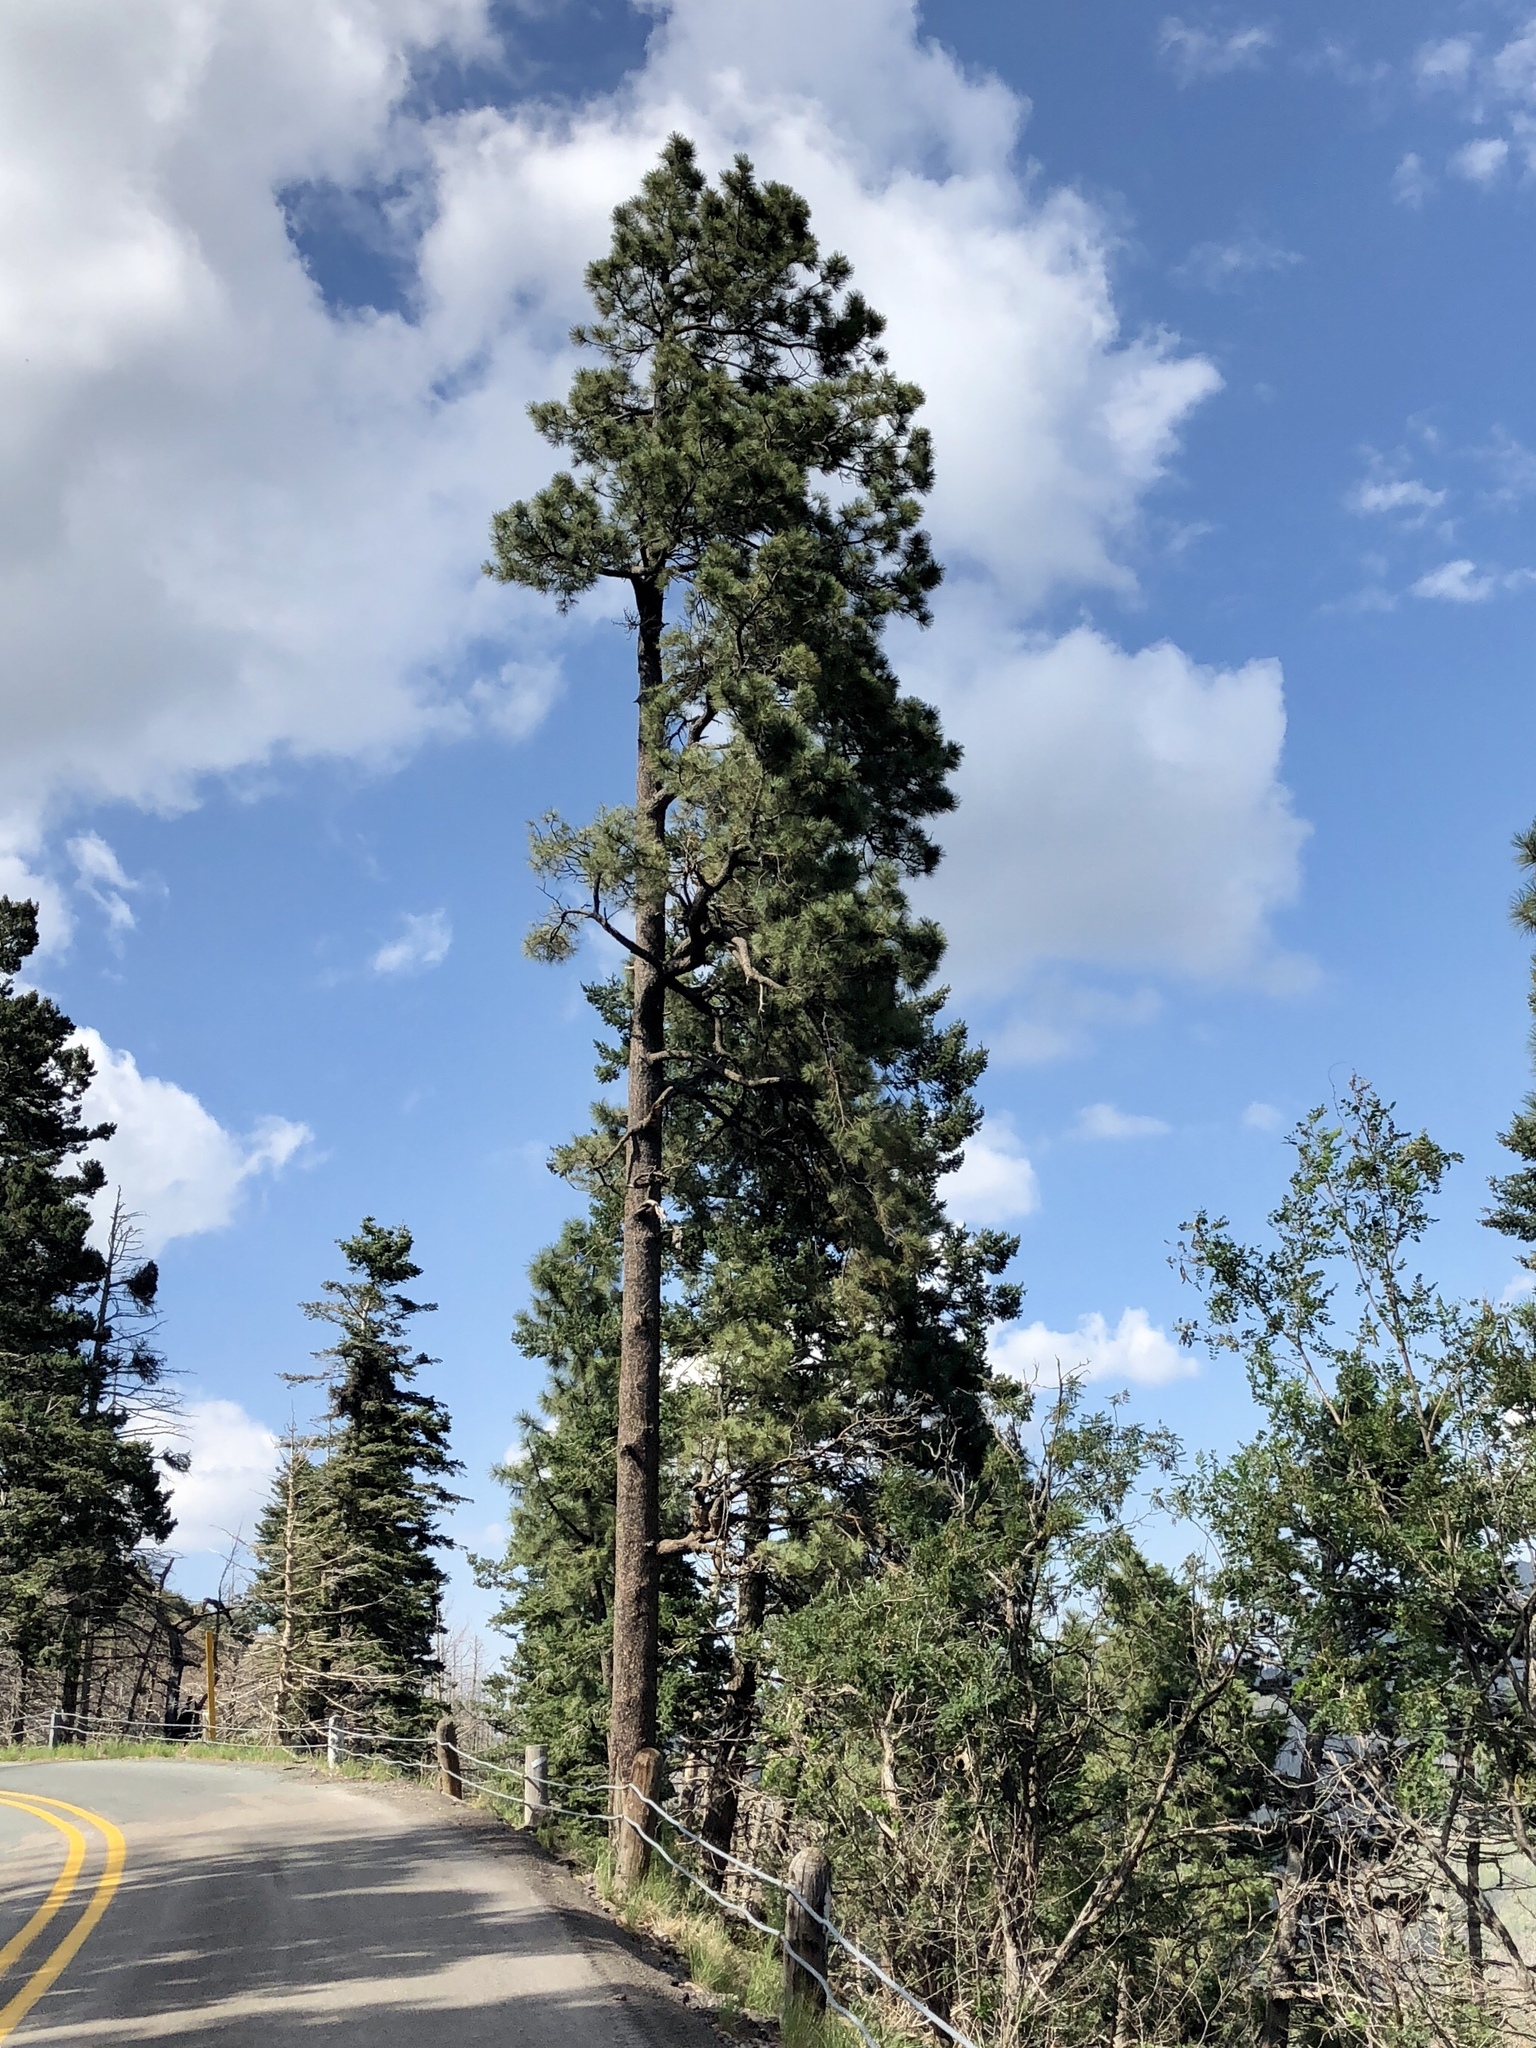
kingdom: Plantae
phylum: Tracheophyta
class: Pinopsida
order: Pinales
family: Pinaceae
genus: Pinus
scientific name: Pinus ponderosa
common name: Western yellow-pine
